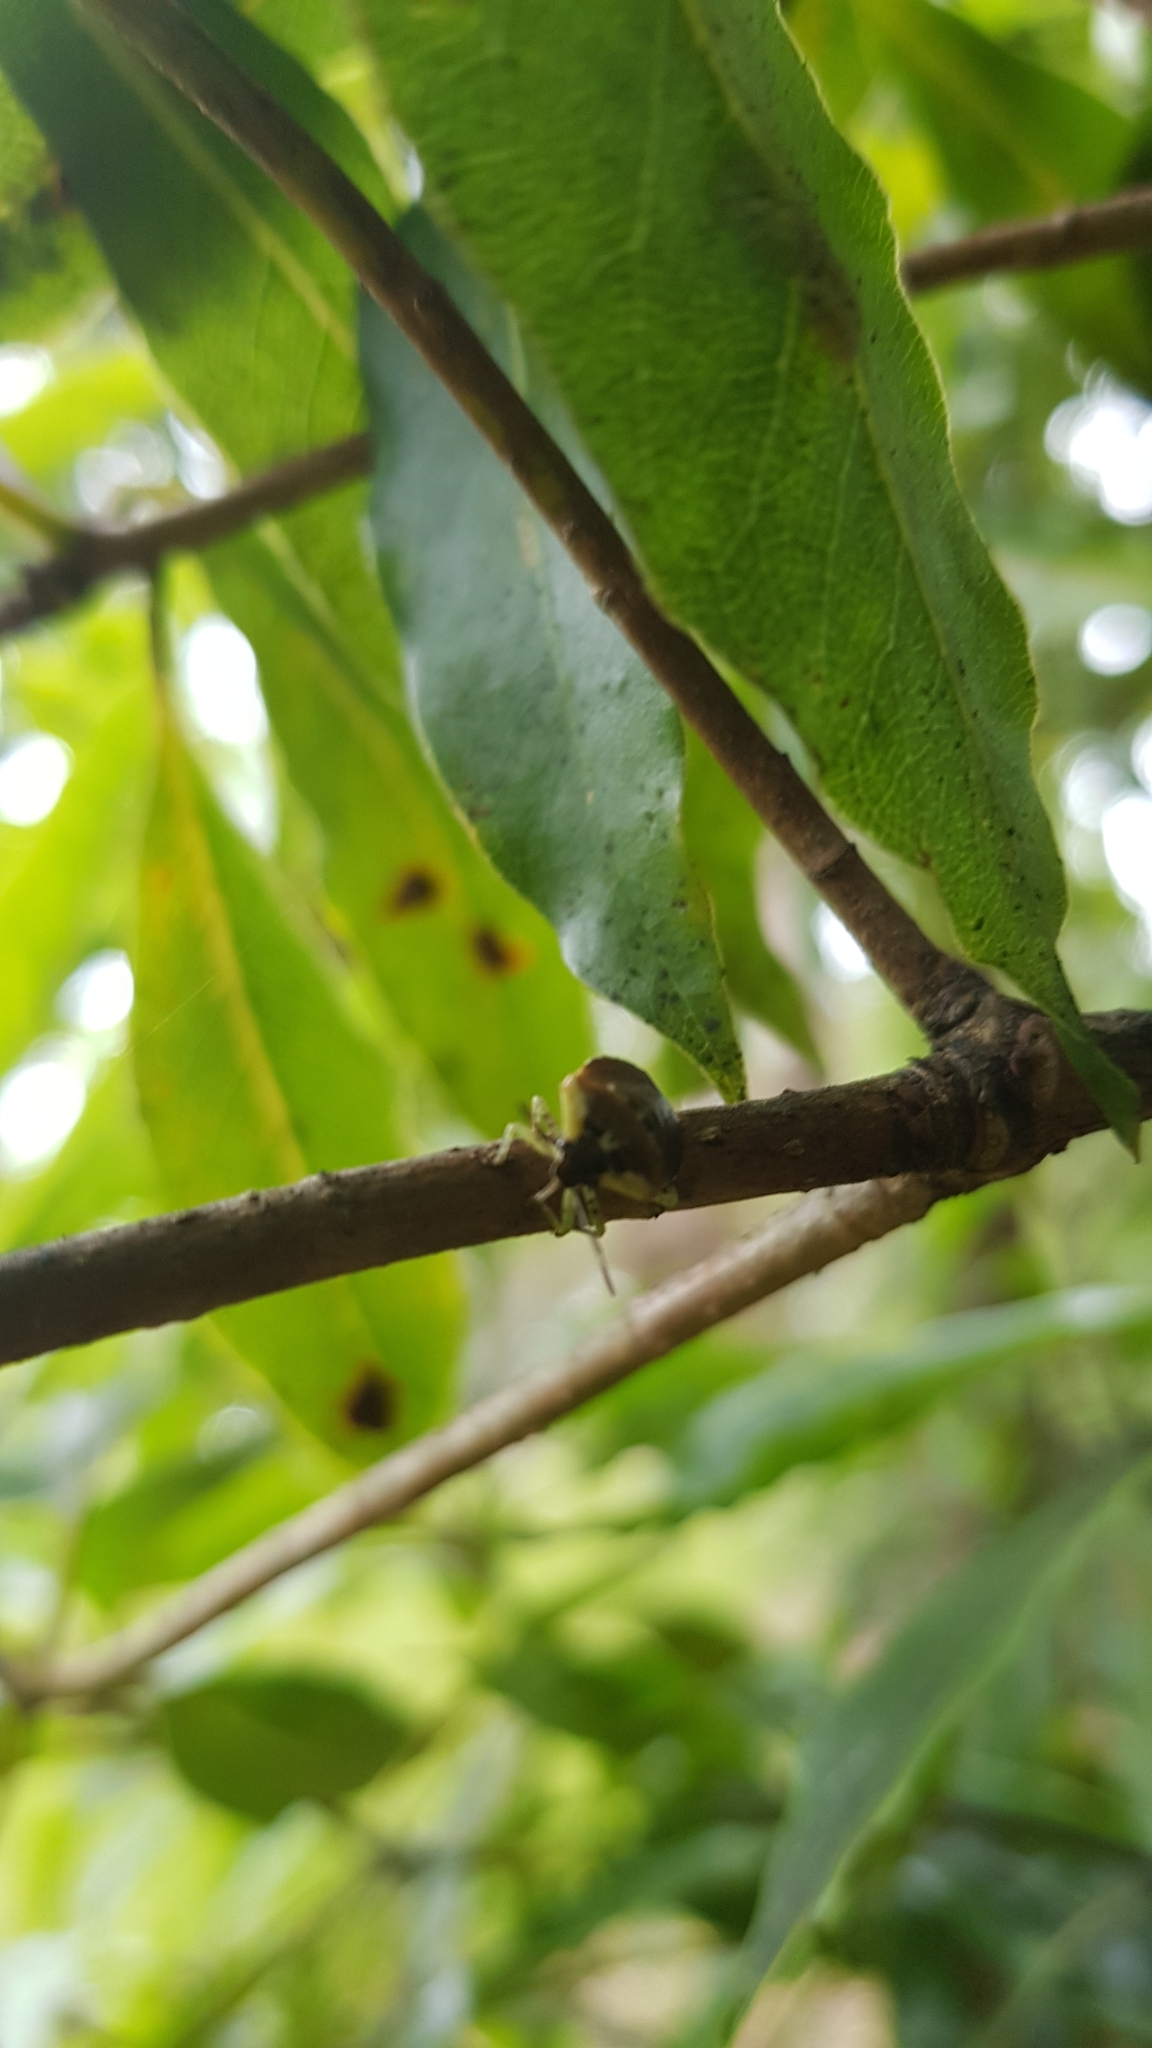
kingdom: Animalia
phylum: Arthropoda
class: Insecta
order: Hemiptera
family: Pentatomidae
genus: Monteithiella
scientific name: Monteithiella
